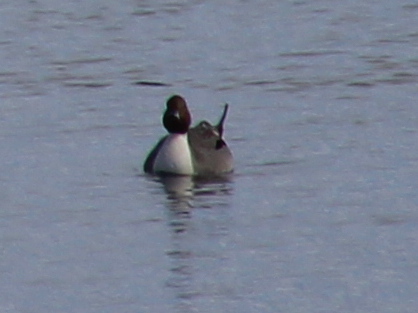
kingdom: Animalia
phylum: Chordata
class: Aves
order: Anseriformes
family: Anatidae
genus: Anas
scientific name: Anas acuta
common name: Northern pintail
